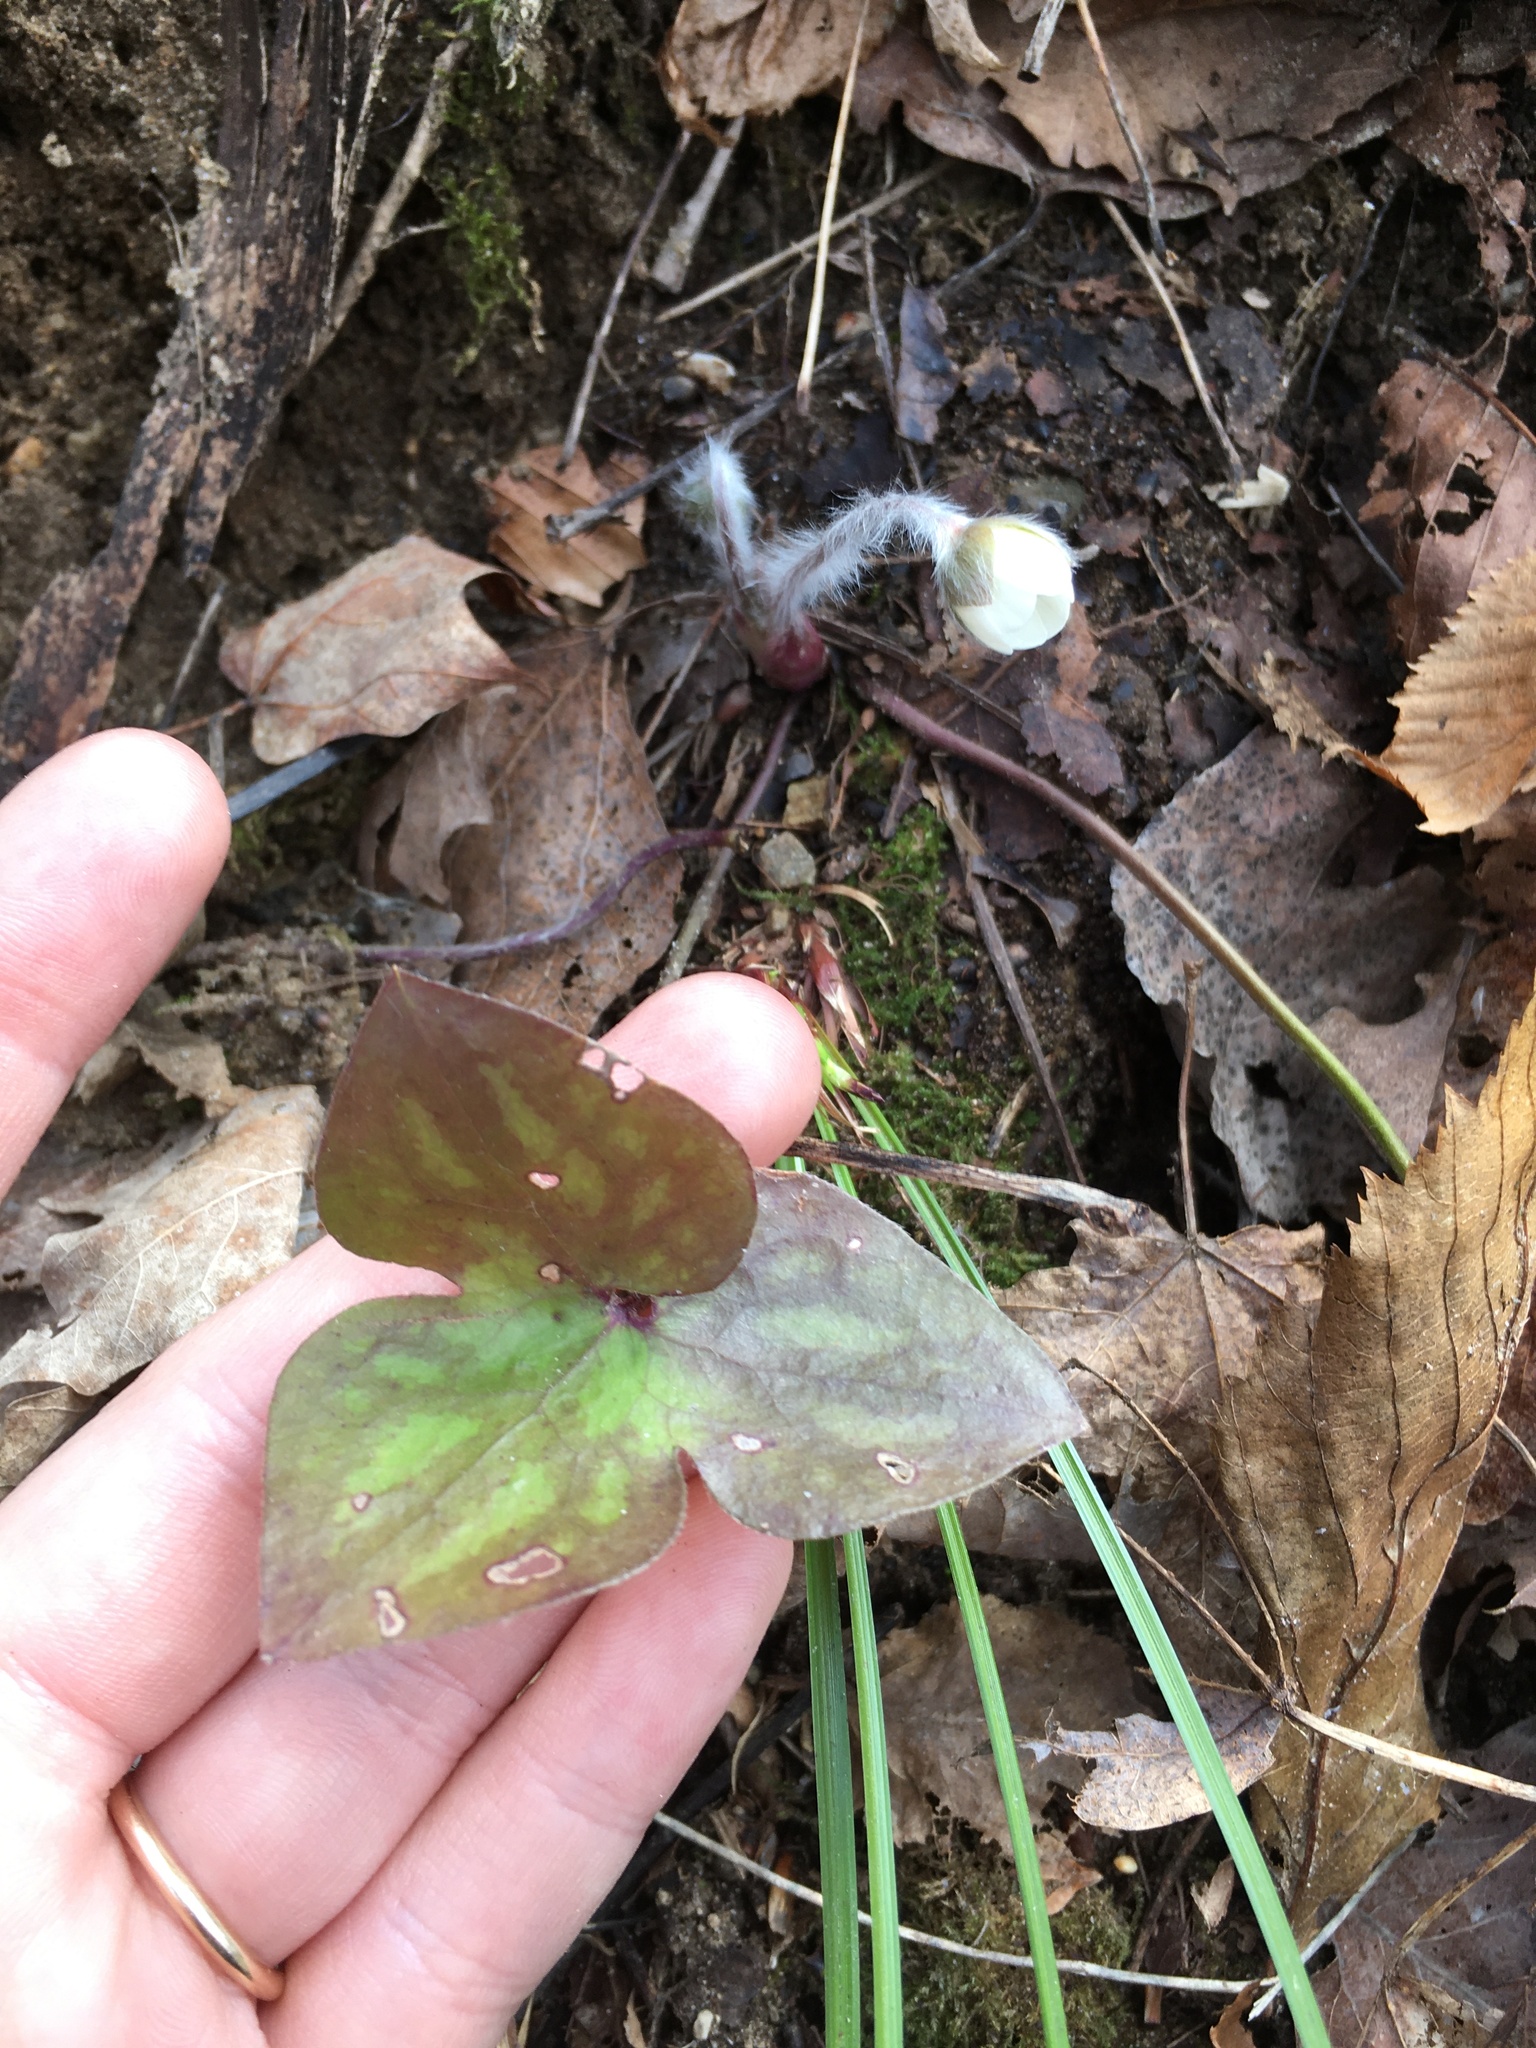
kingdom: Plantae
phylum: Tracheophyta
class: Magnoliopsida
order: Ranunculales
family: Ranunculaceae
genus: Hepatica
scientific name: Hepatica acutiloba
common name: Sharp-lobed hepatica
